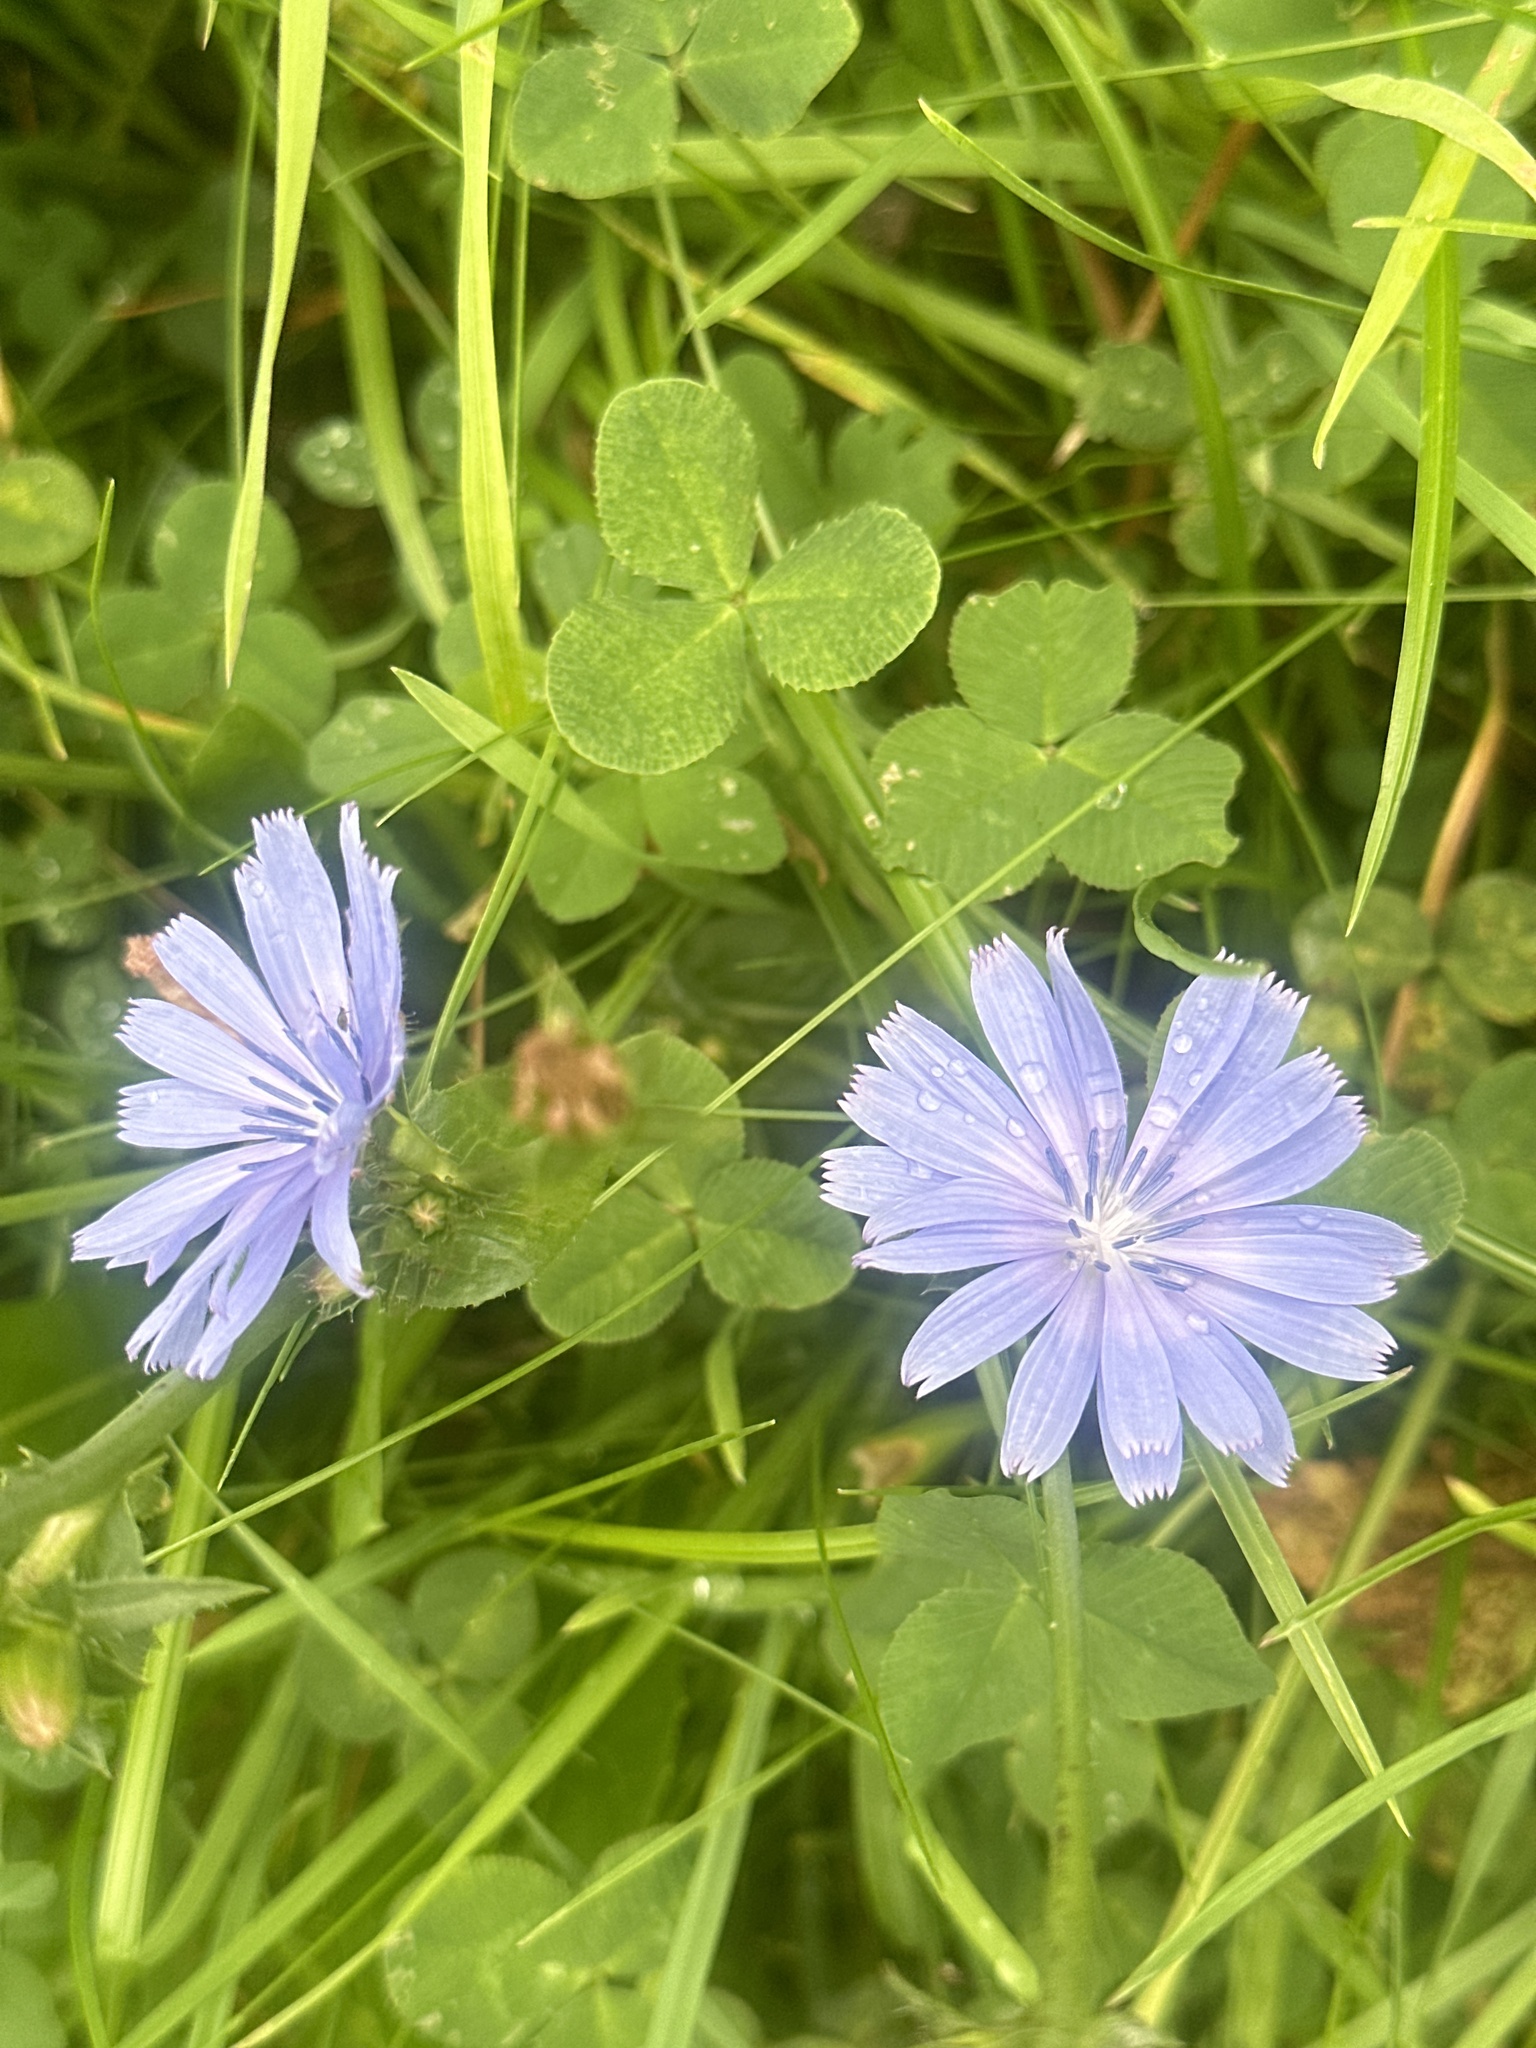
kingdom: Plantae
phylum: Tracheophyta
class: Magnoliopsida
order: Asterales
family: Asteraceae
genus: Cichorium
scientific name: Cichorium intybus
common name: Chicory
